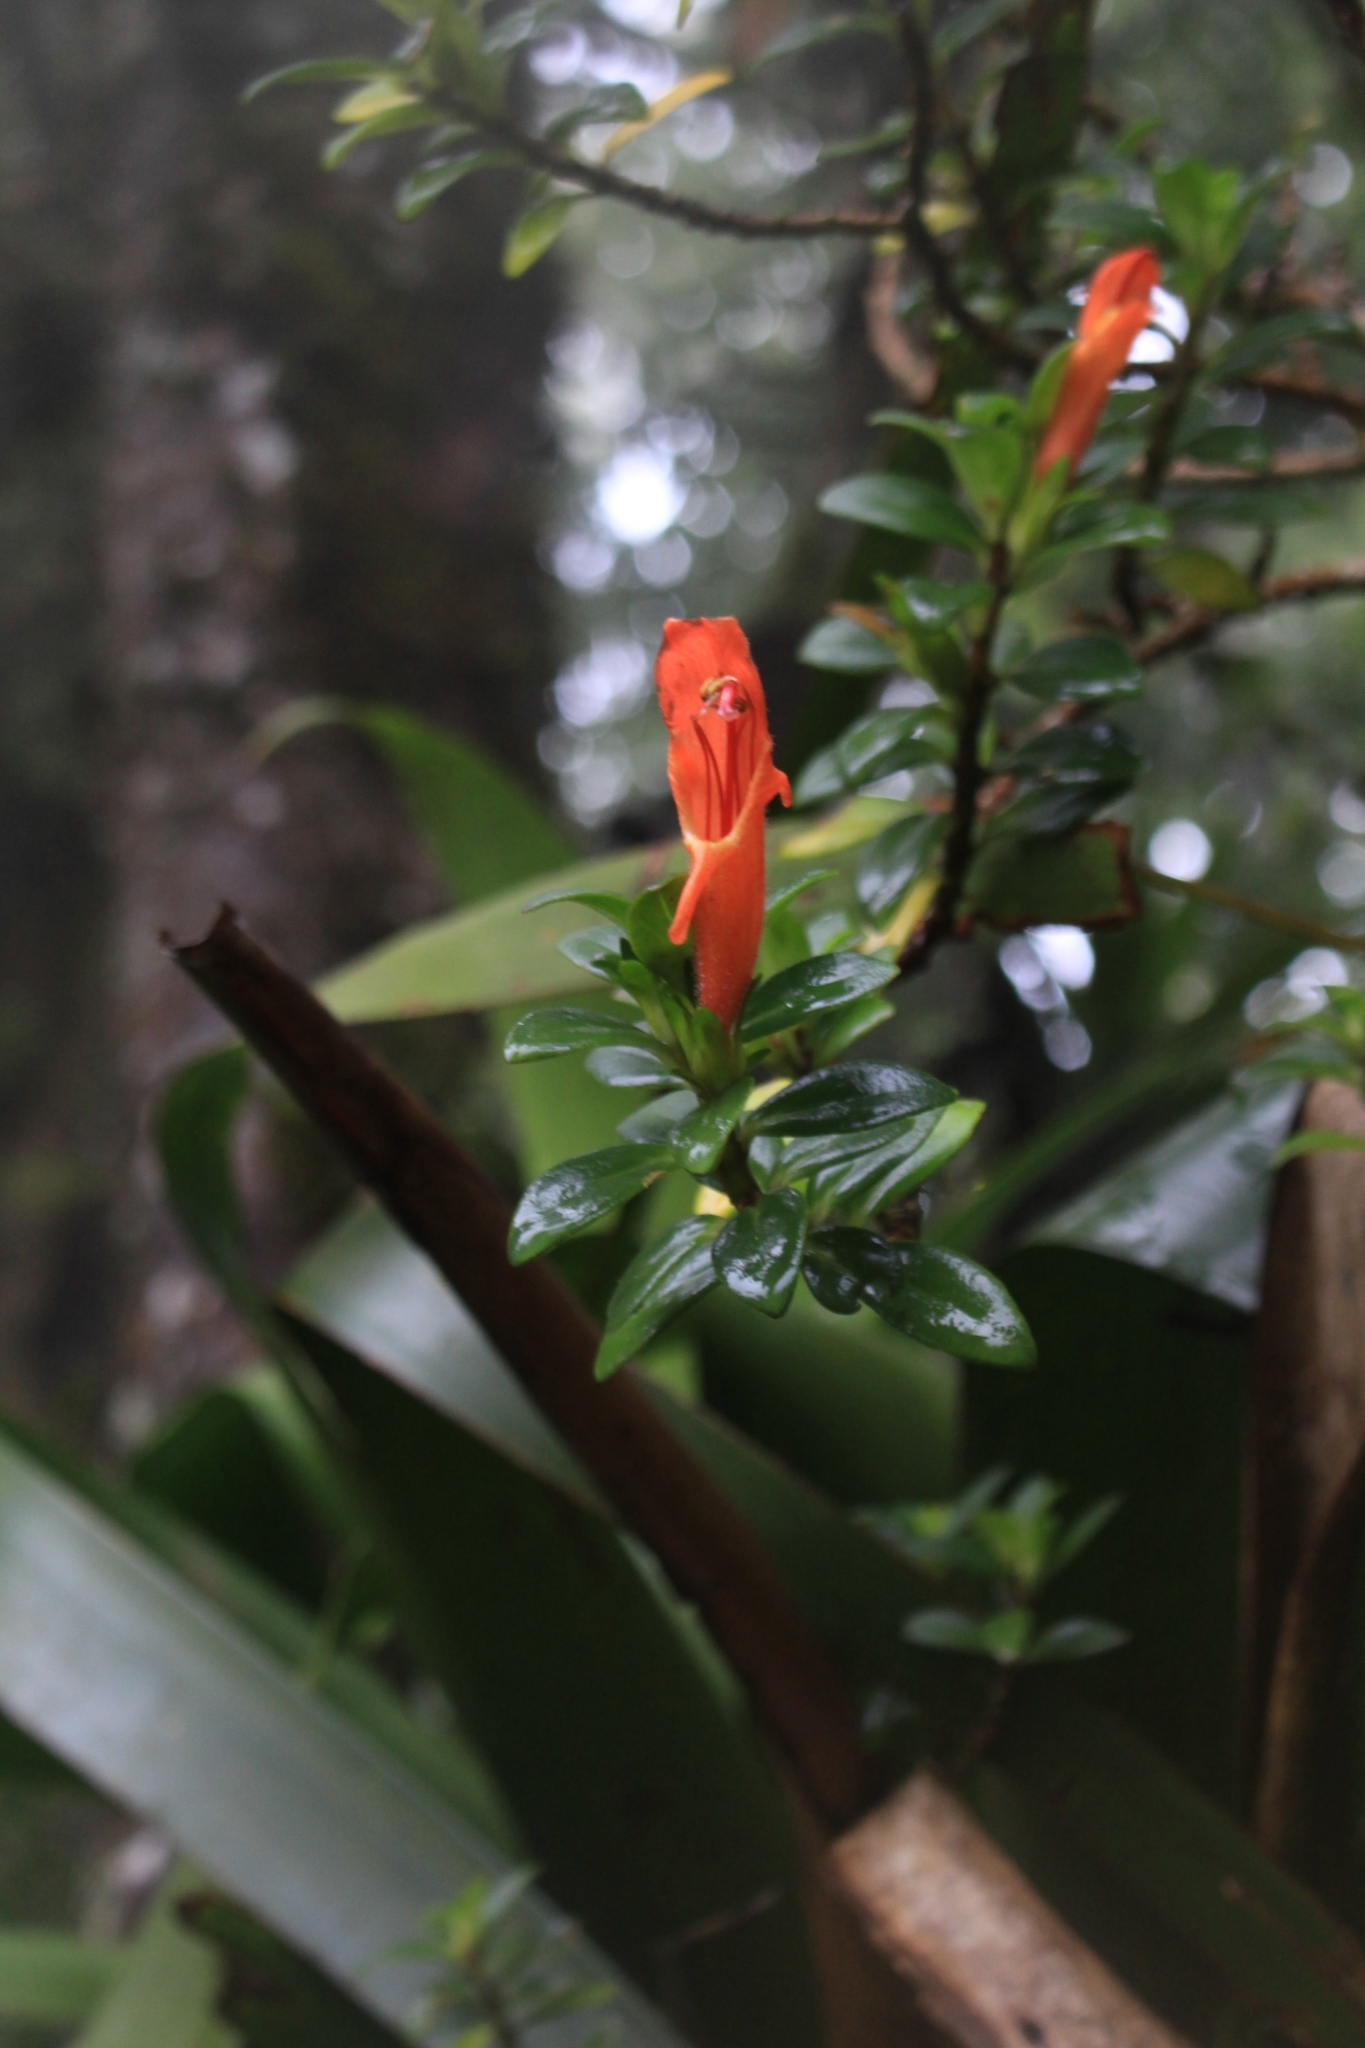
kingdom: Plantae
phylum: Tracheophyta
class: Magnoliopsida
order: Lamiales
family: Gesneriaceae
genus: Columnea
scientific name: Columnea glabra
